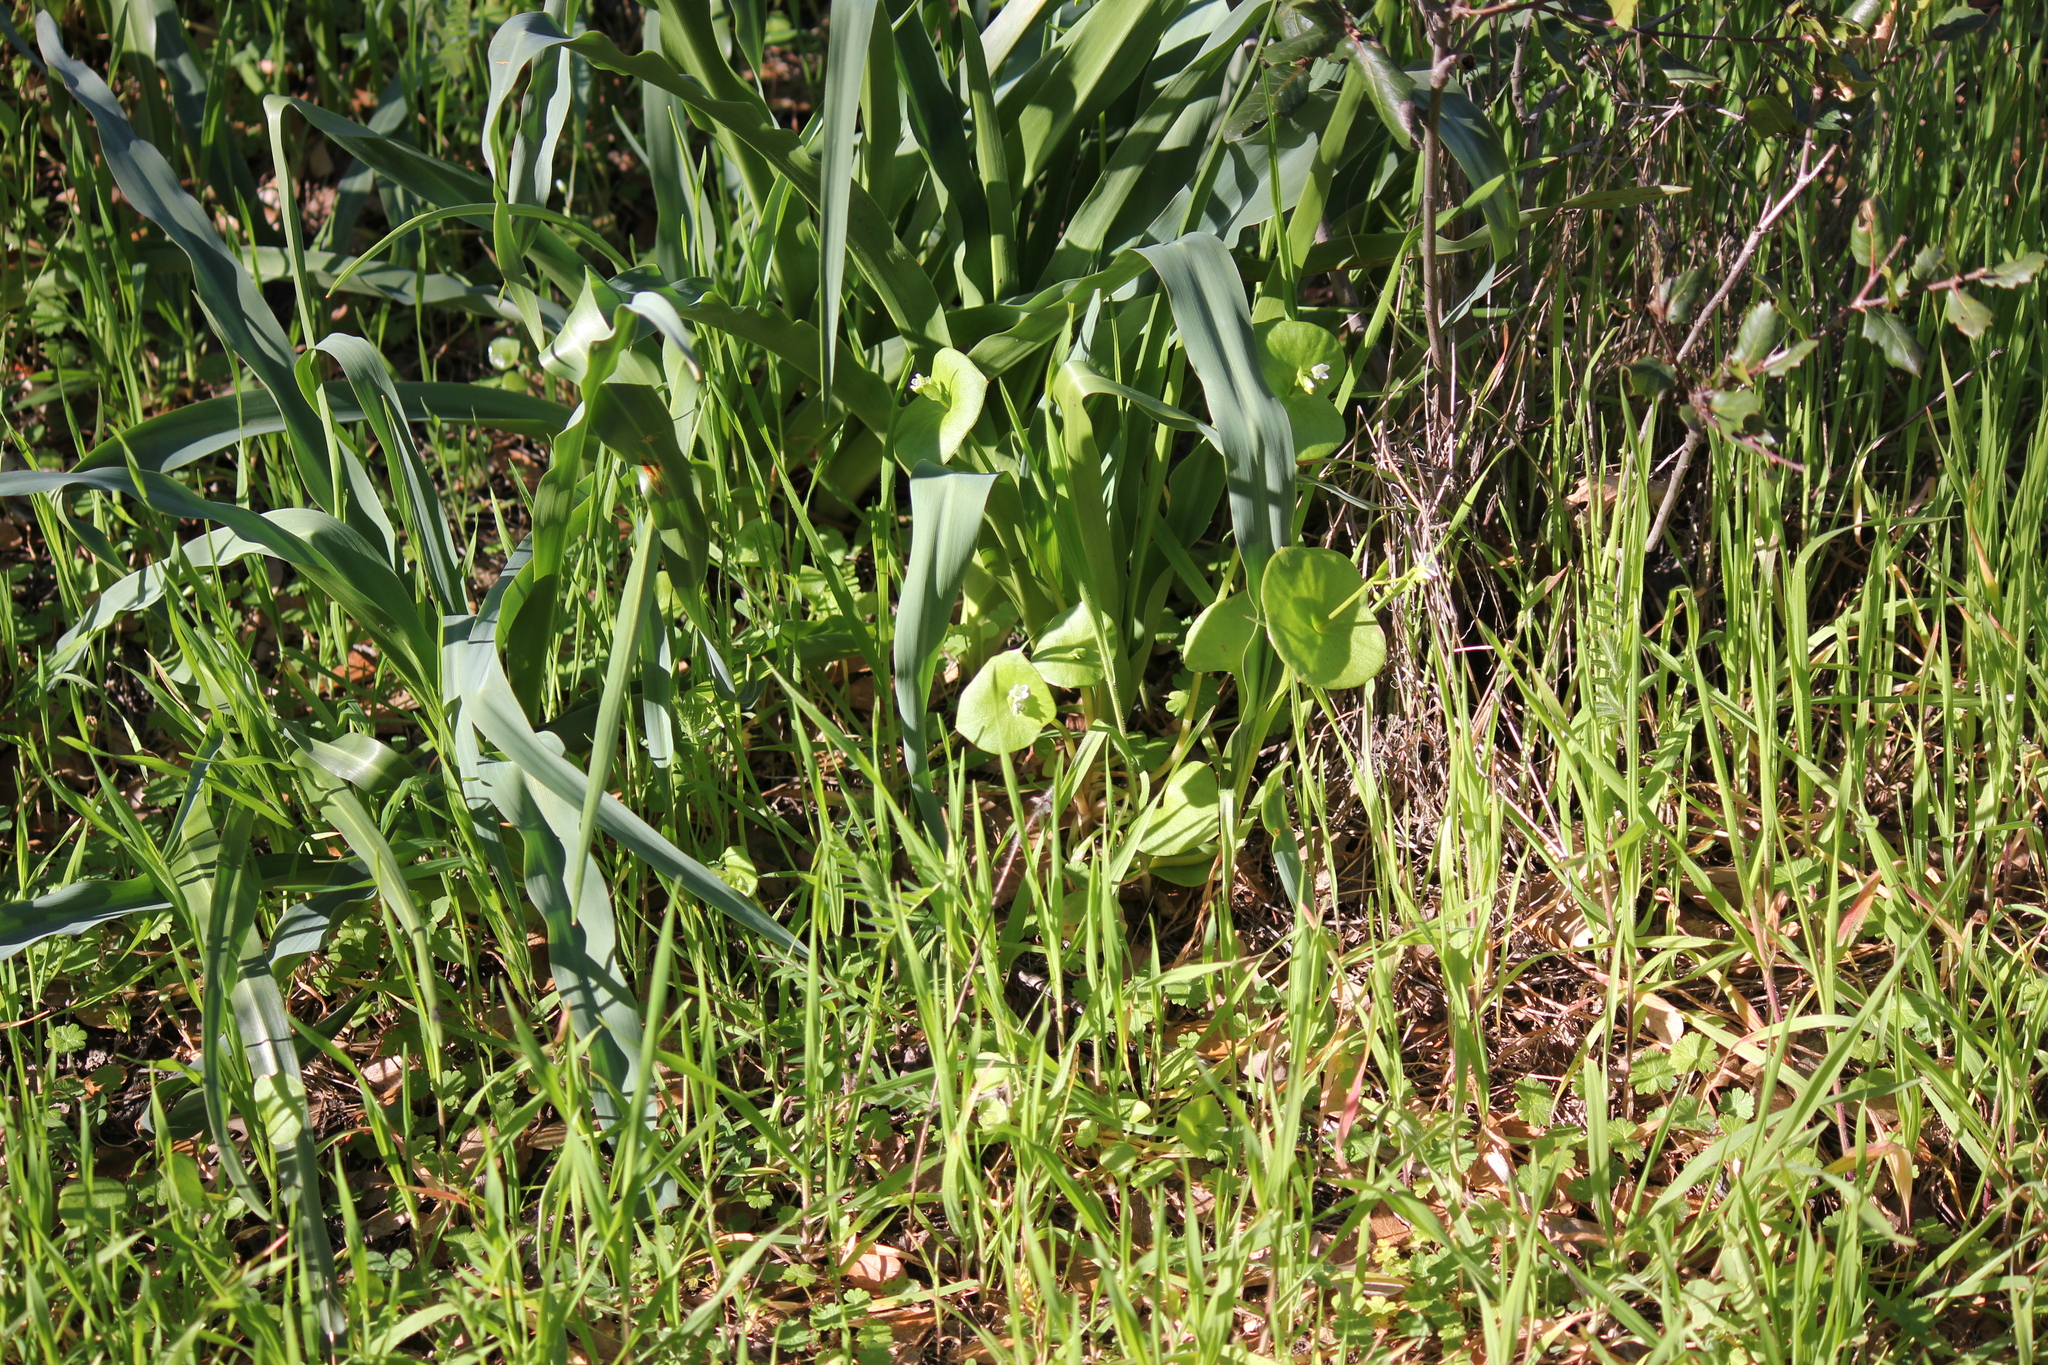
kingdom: Plantae
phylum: Tracheophyta
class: Magnoliopsida
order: Caryophyllales
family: Montiaceae
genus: Claytonia
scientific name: Claytonia perfoliata
